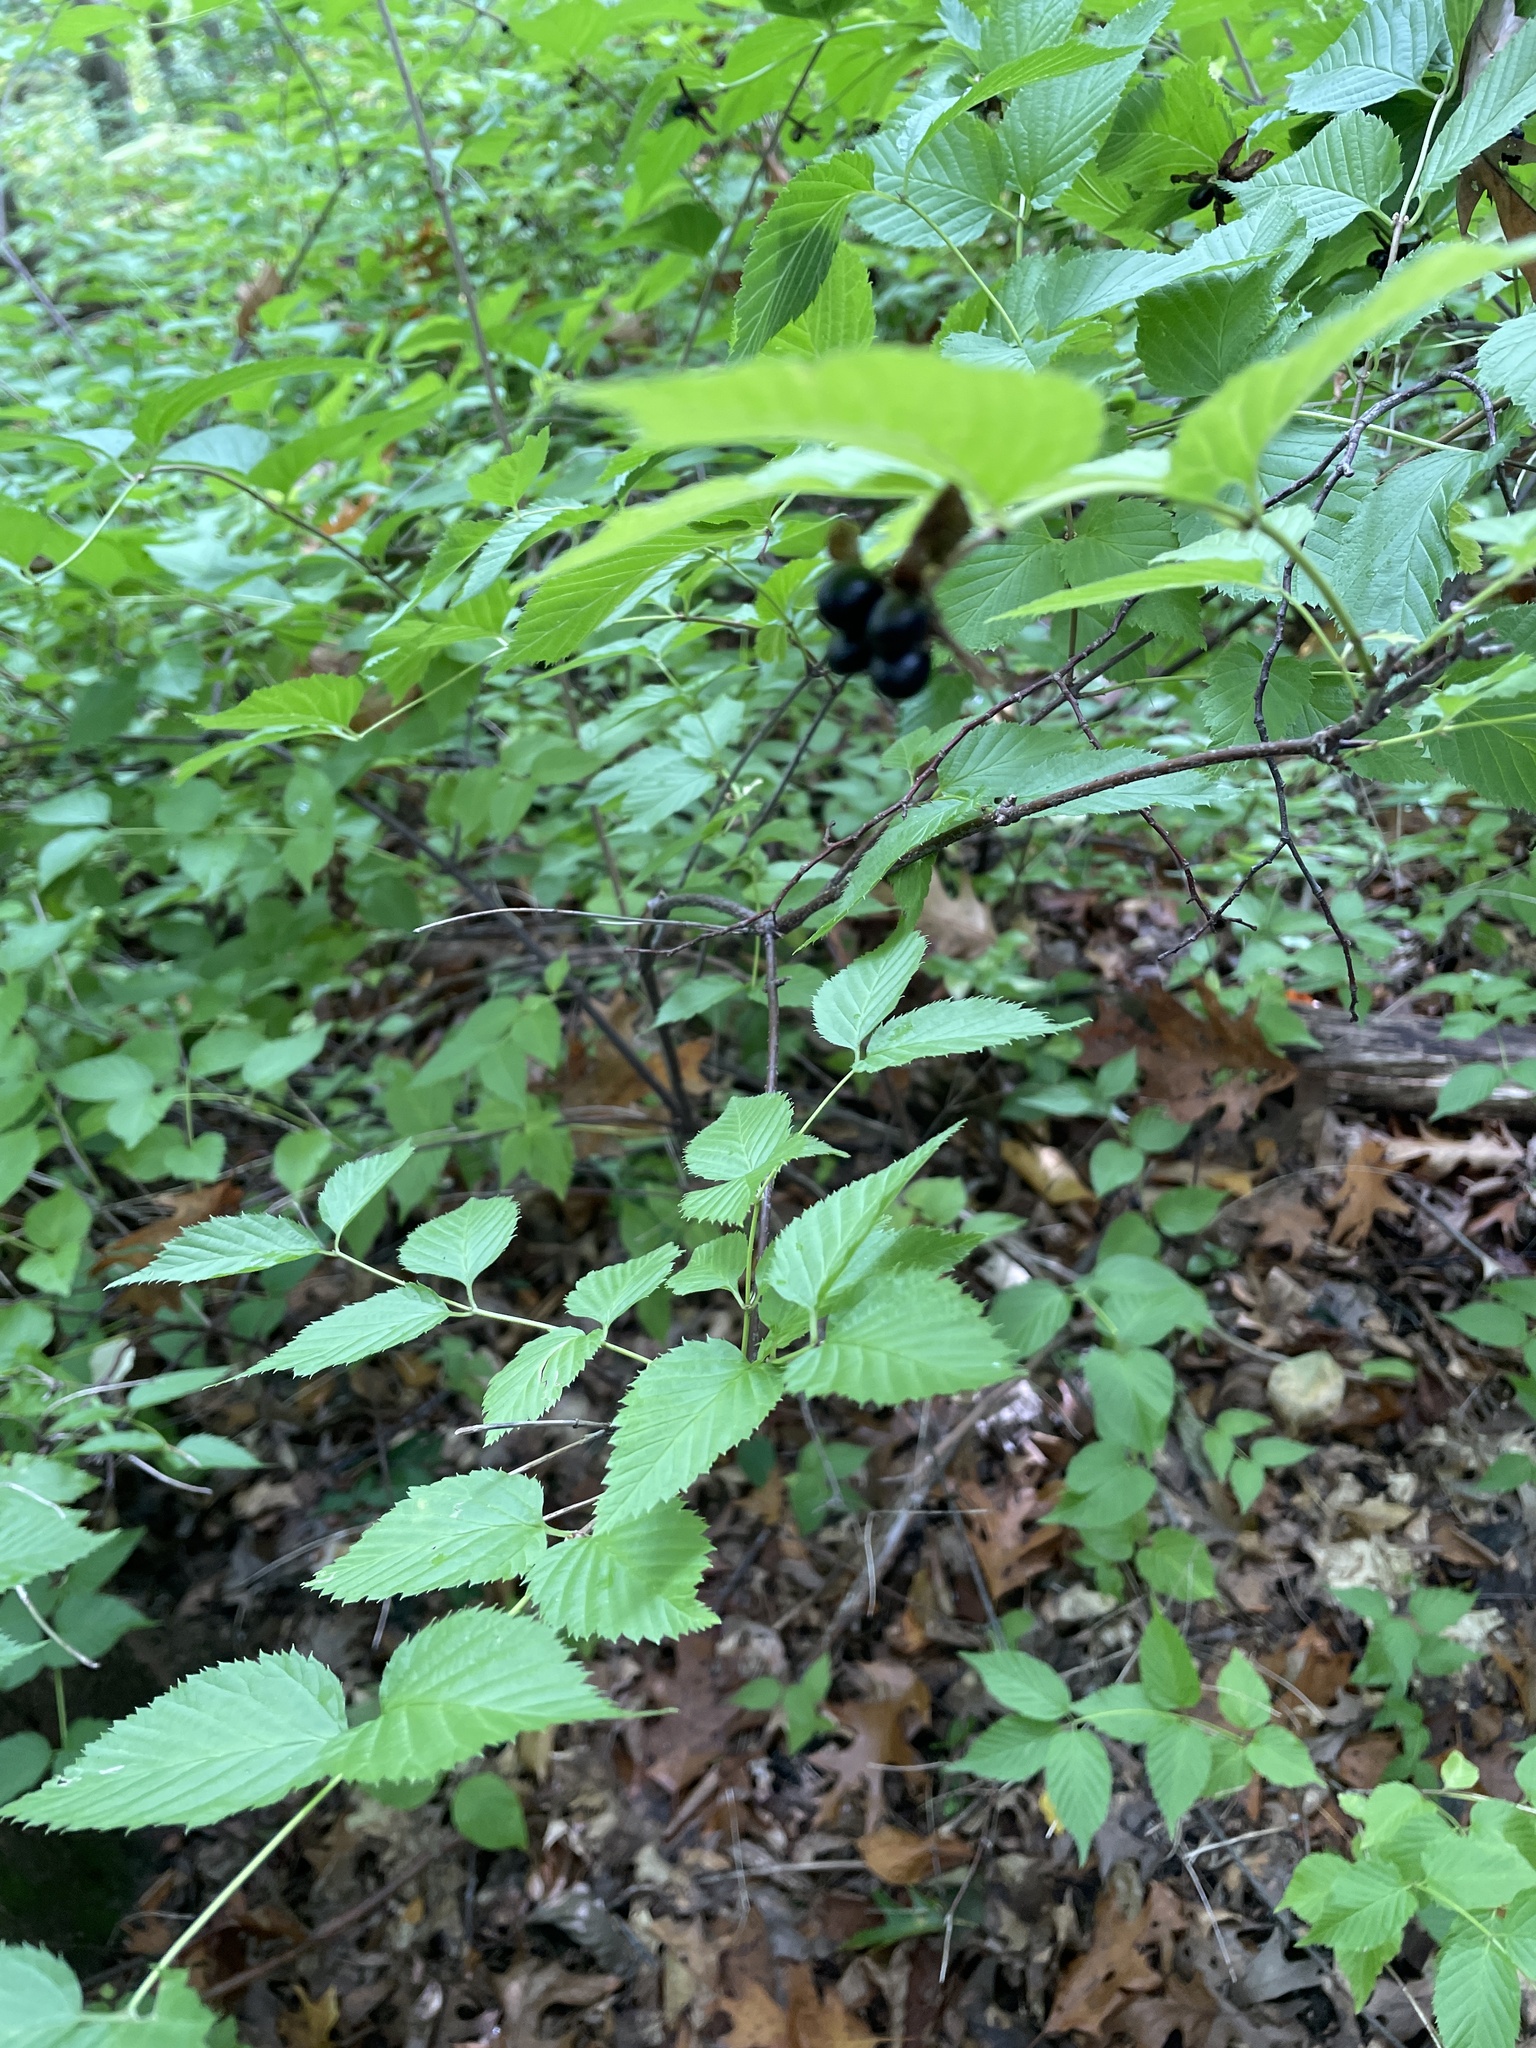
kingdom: Plantae
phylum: Tracheophyta
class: Magnoliopsida
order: Rosales
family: Rosaceae
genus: Rhodotypos
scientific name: Rhodotypos scandens
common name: Jetbead
